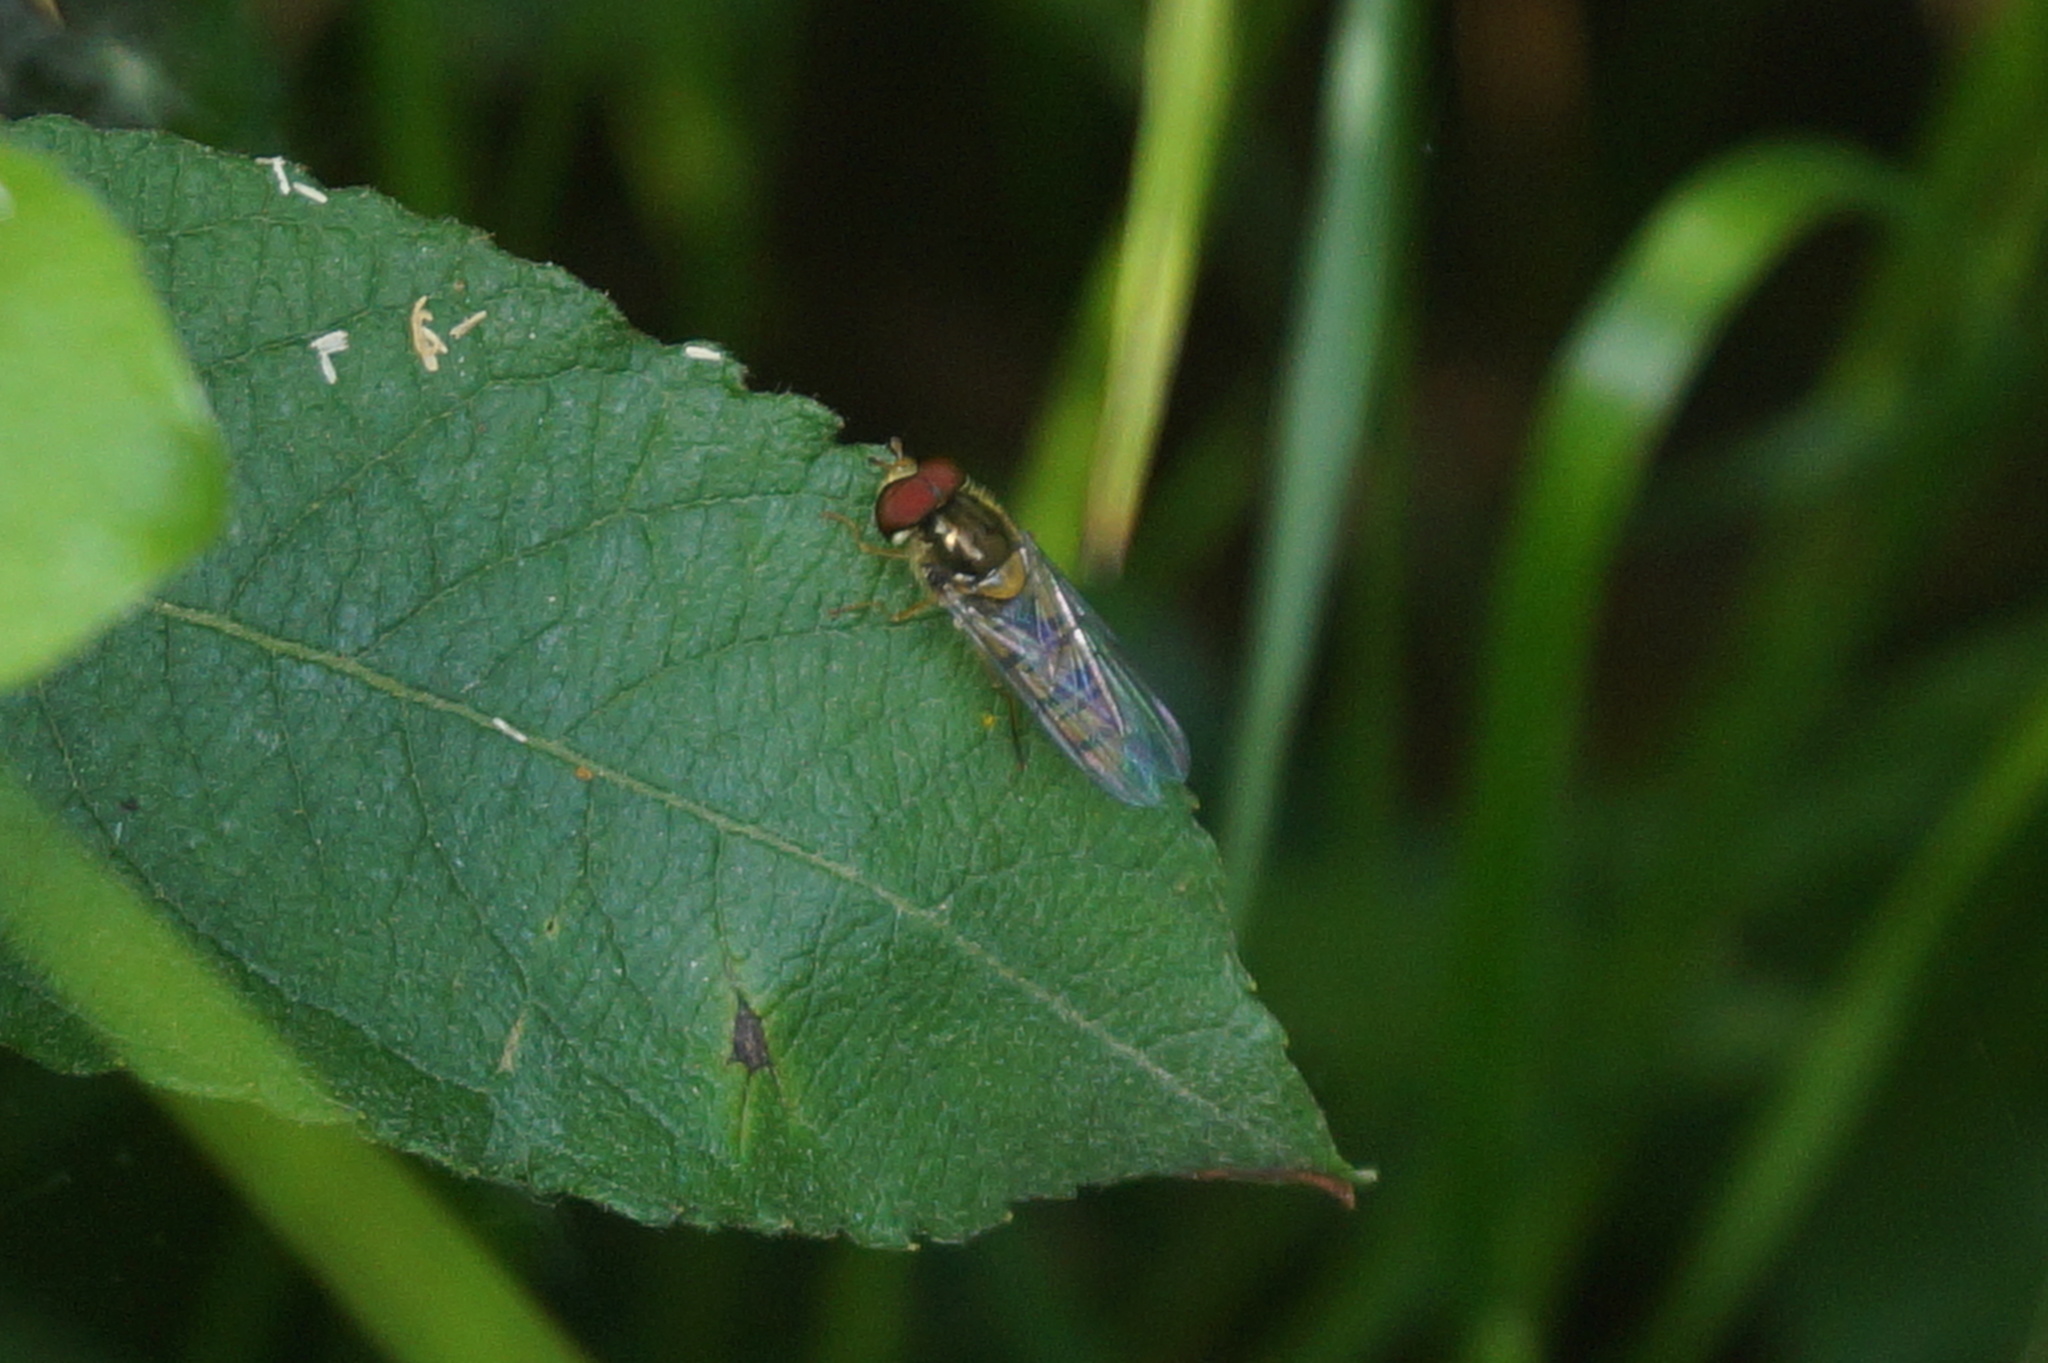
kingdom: Animalia
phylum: Arthropoda
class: Insecta
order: Diptera
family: Syrphidae
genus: Episyrphus
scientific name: Episyrphus balteatus
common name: Marmalade hoverfly
